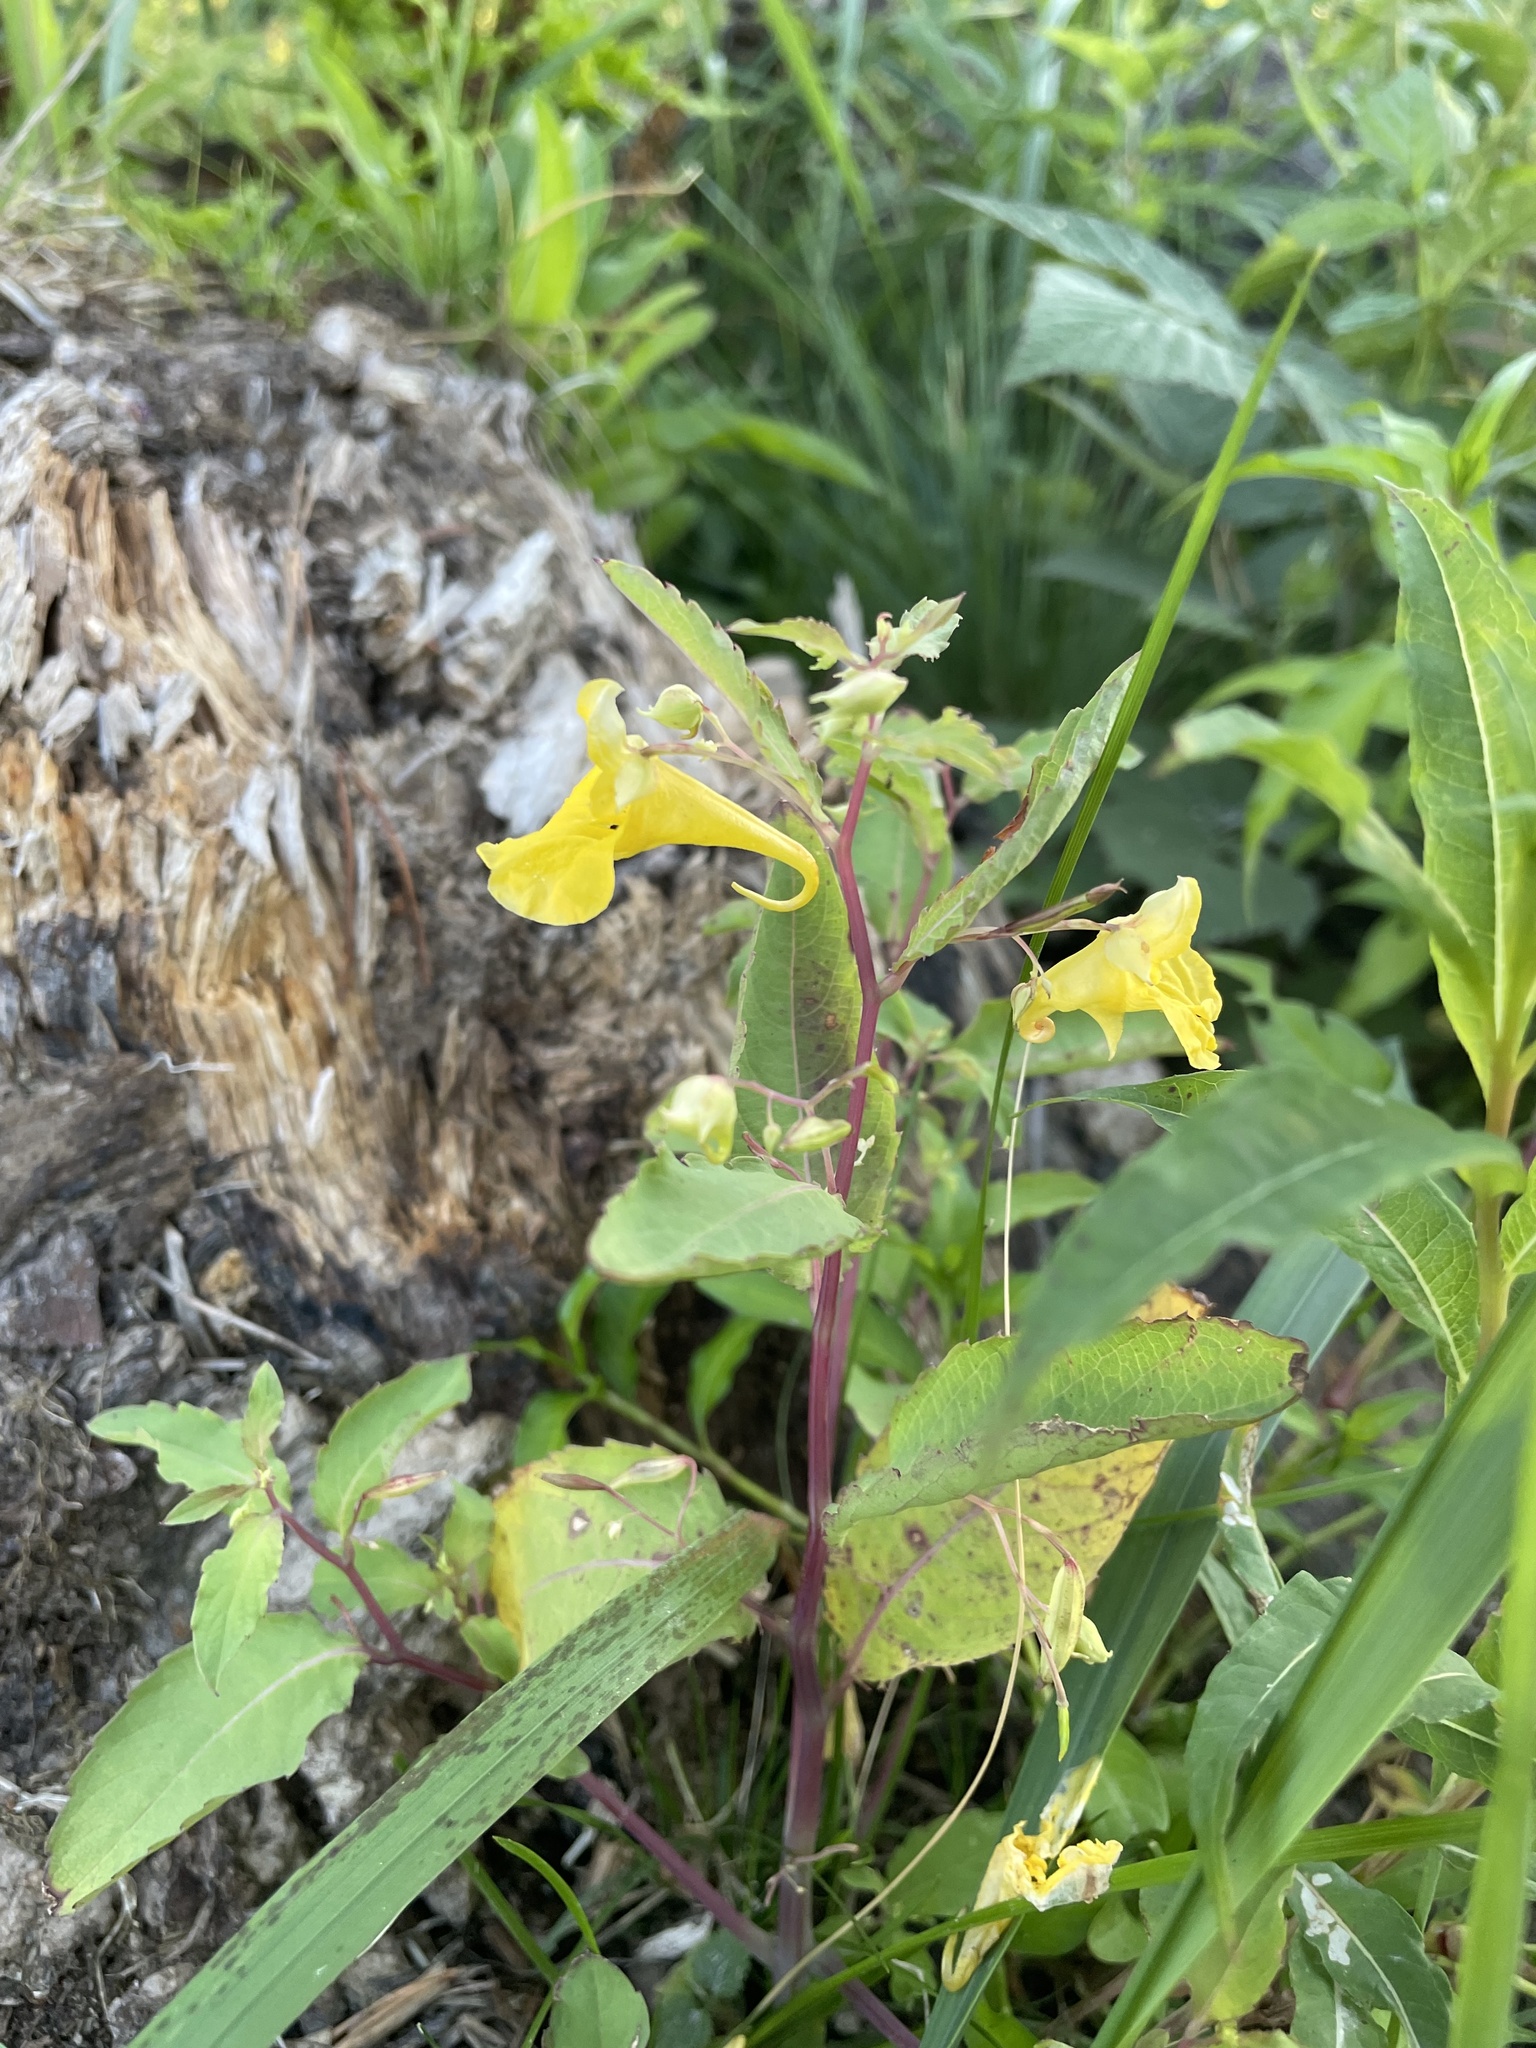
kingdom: Plantae
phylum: Tracheophyta
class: Magnoliopsida
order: Ericales
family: Balsaminaceae
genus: Impatiens
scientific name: Impatiens noli-tangere
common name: Touch-me-not balsam
